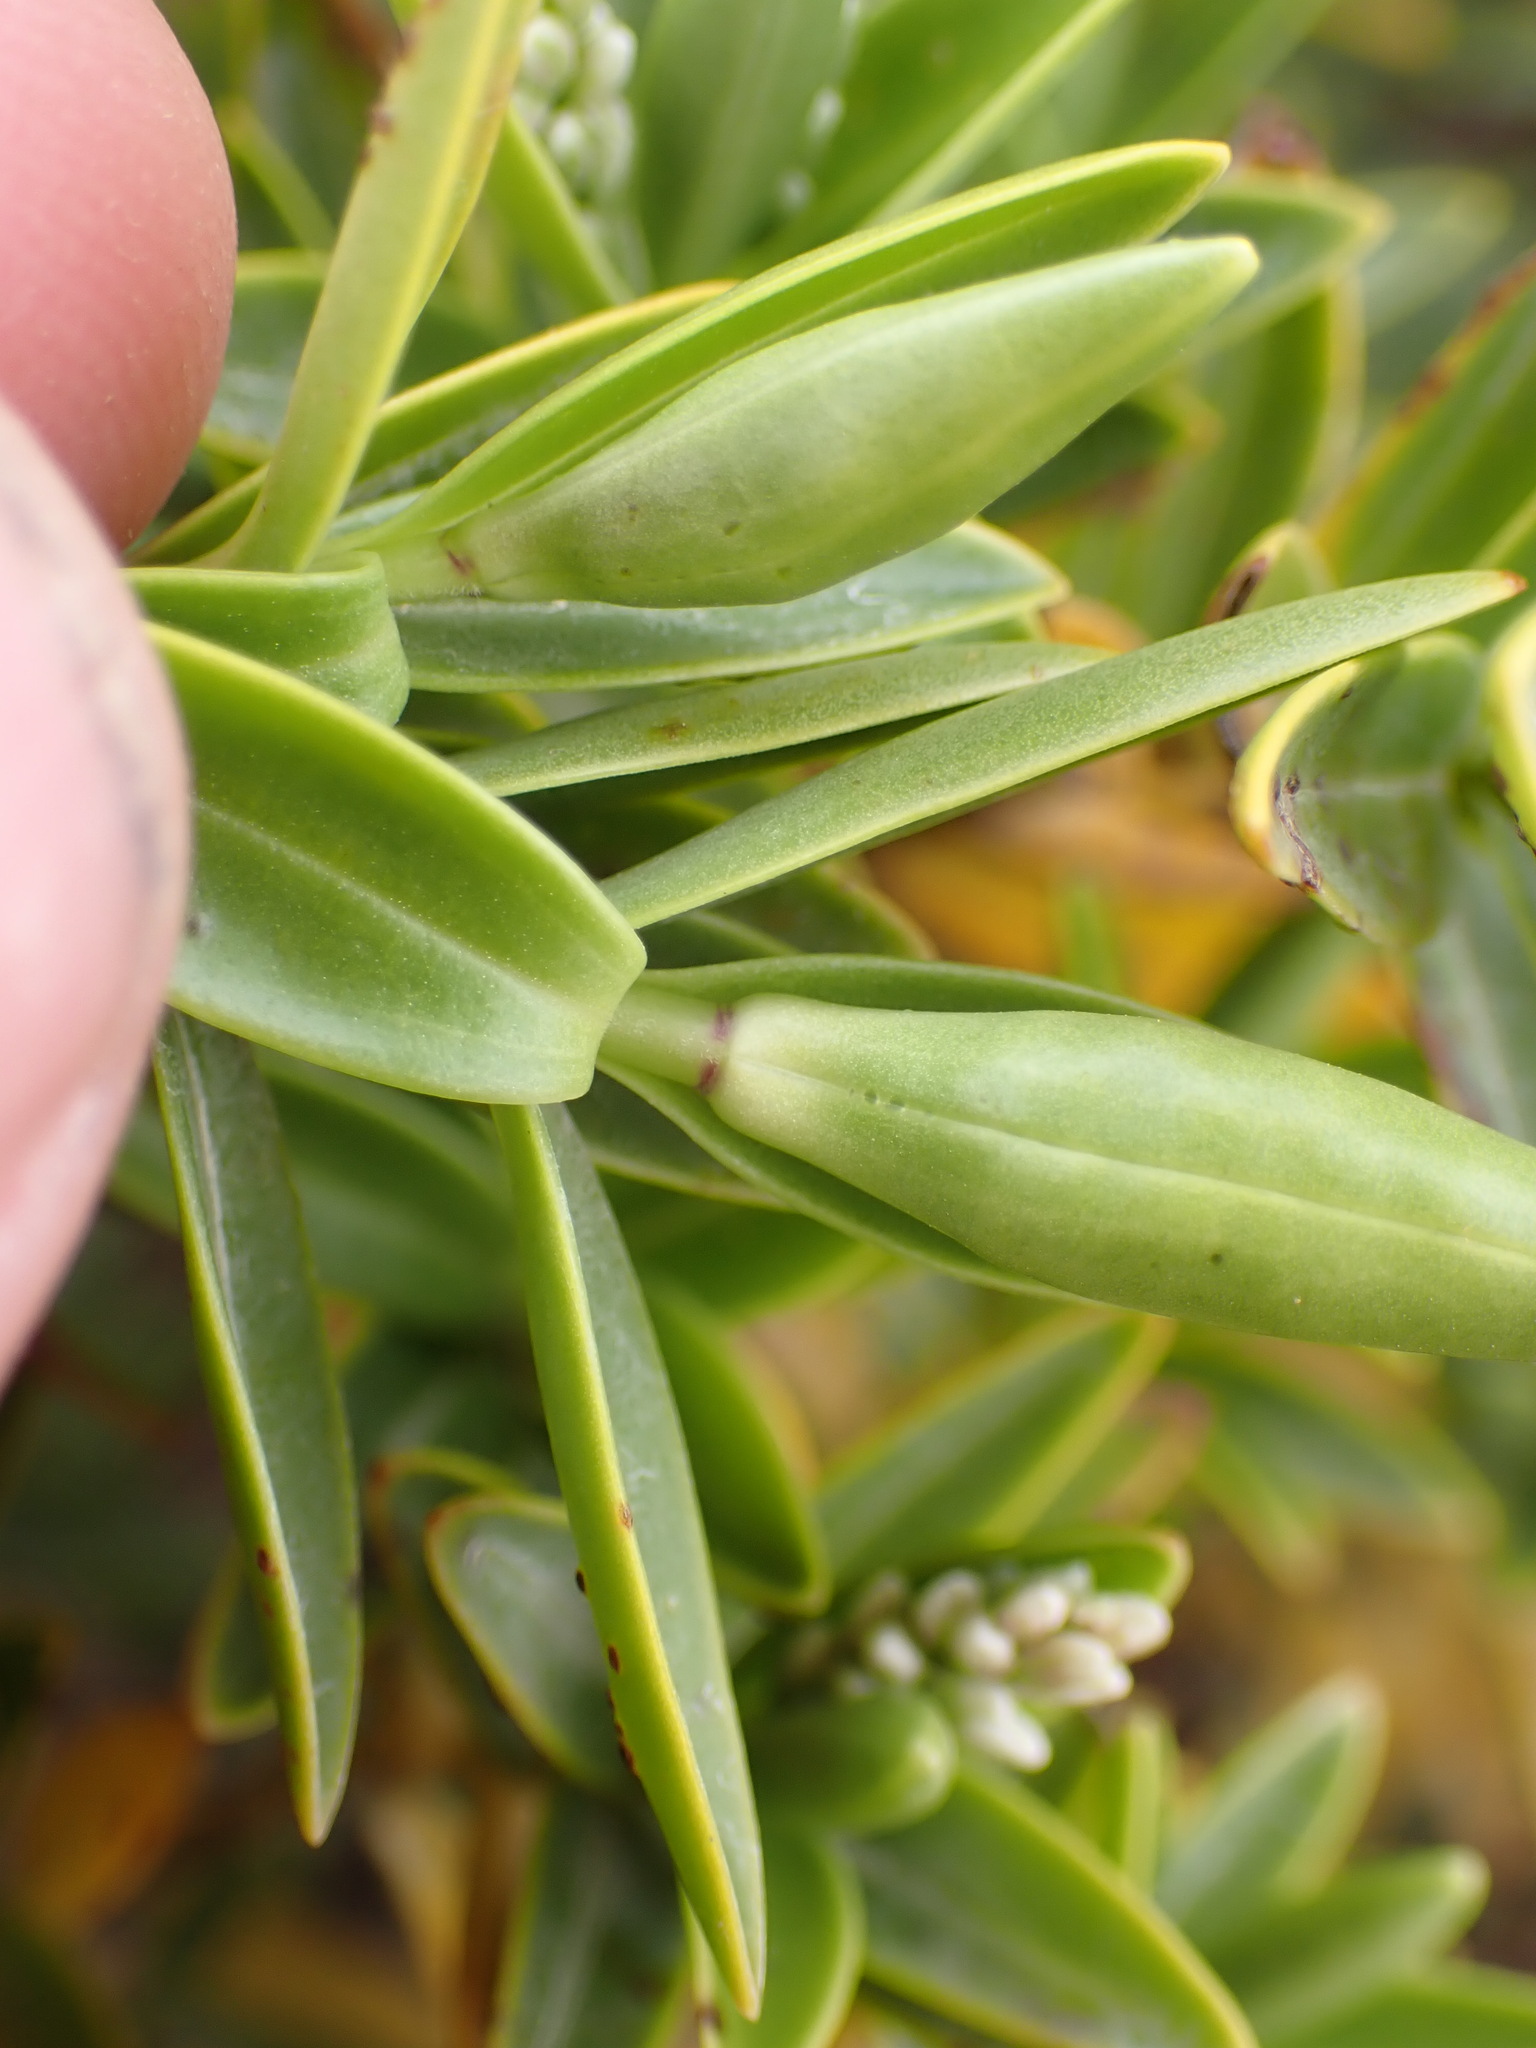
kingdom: Plantae
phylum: Tracheophyta
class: Magnoliopsida
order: Lamiales
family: Plantaginaceae
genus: Veronica
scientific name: Veronica subalpina
